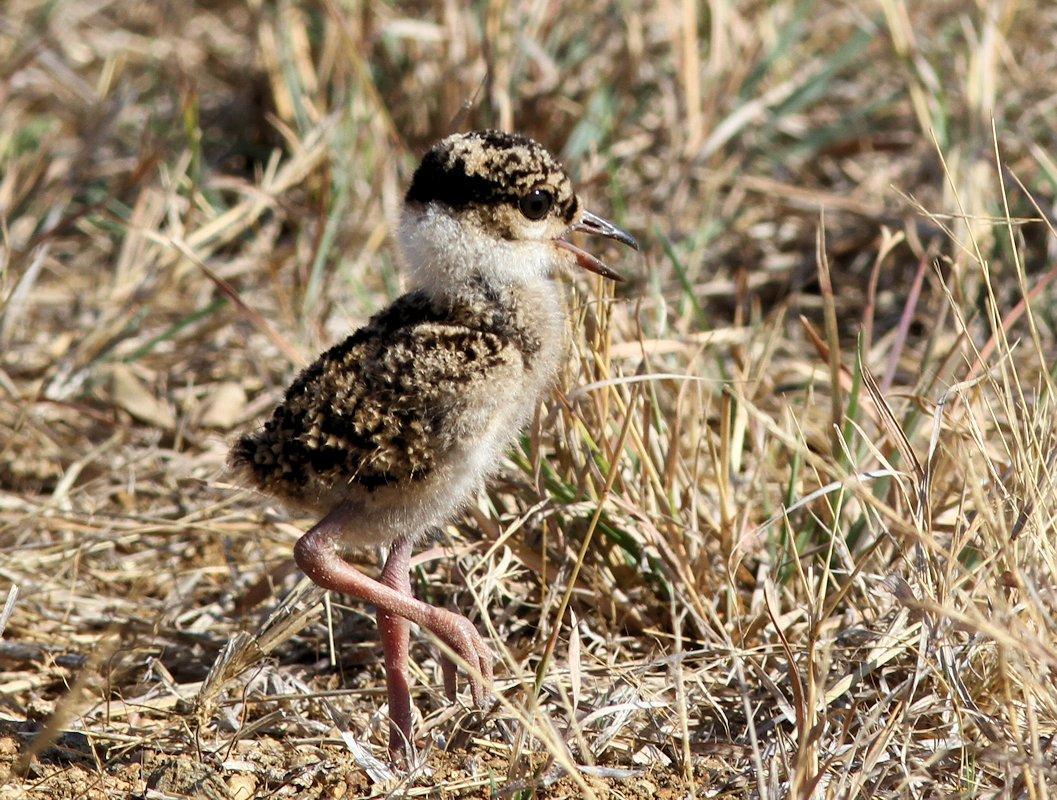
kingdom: Animalia
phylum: Chordata
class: Aves
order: Charadriiformes
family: Charadriidae
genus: Vanellus
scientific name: Vanellus coronatus
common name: Crowned lapwing
